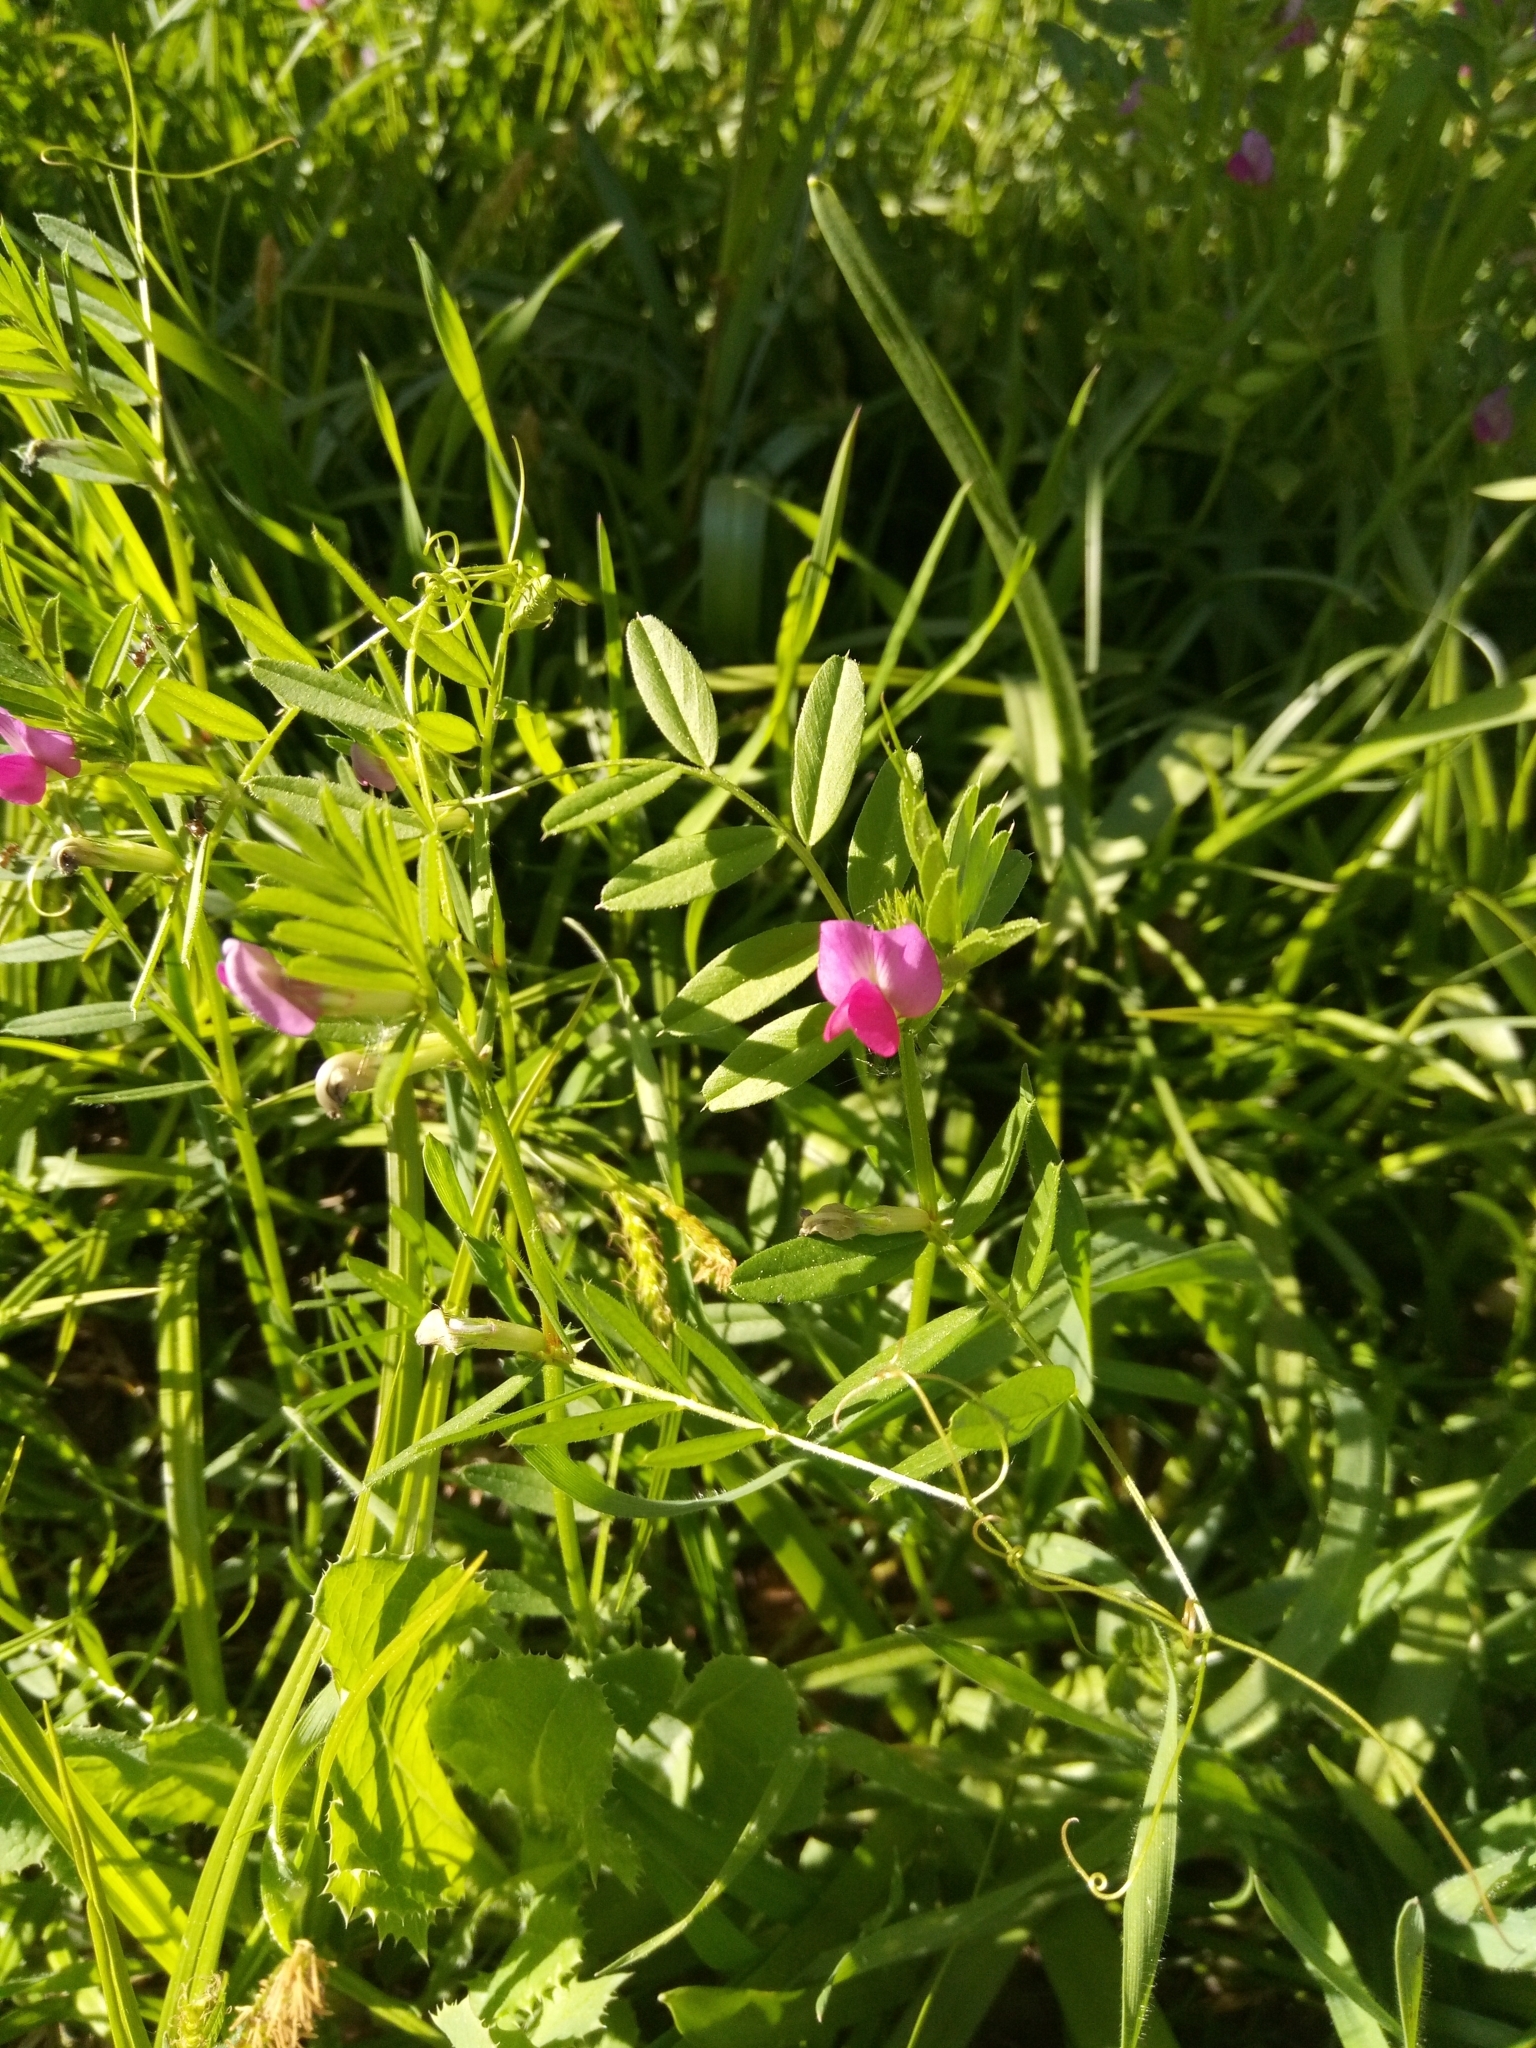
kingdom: Plantae
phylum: Tracheophyta
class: Magnoliopsida
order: Fabales
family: Fabaceae
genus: Vicia
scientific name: Vicia sativa
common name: Garden vetch
